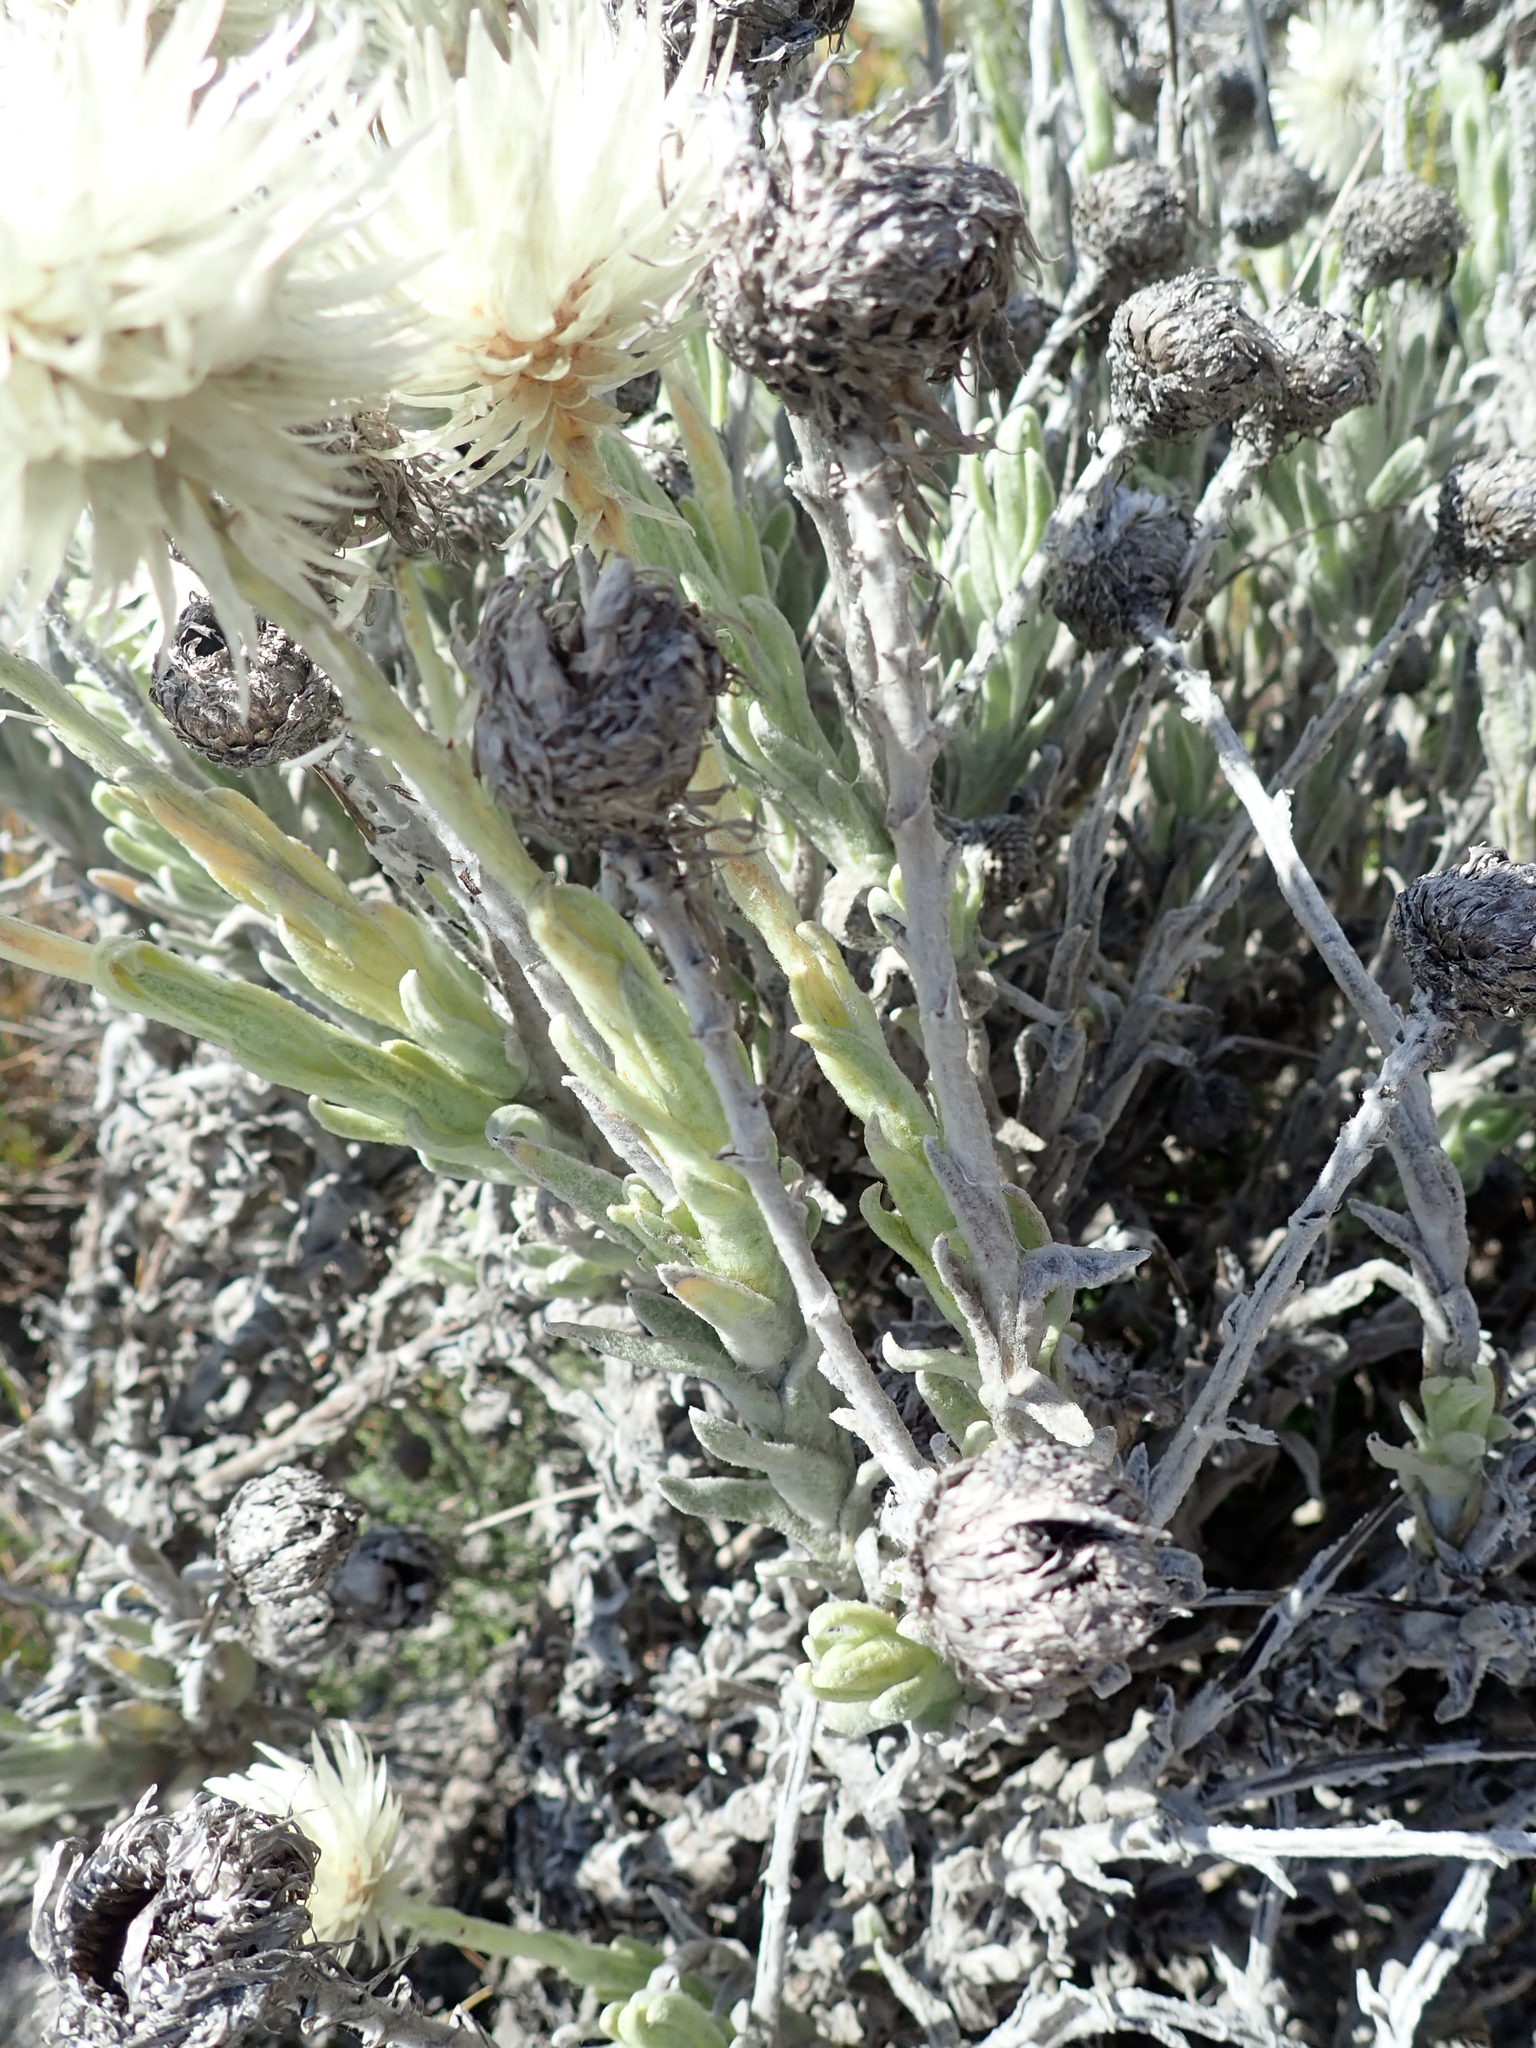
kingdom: Plantae
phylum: Tracheophyta
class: Magnoliopsida
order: Asterales
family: Asteraceae
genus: Syncarpha
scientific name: Syncarpha vestita
